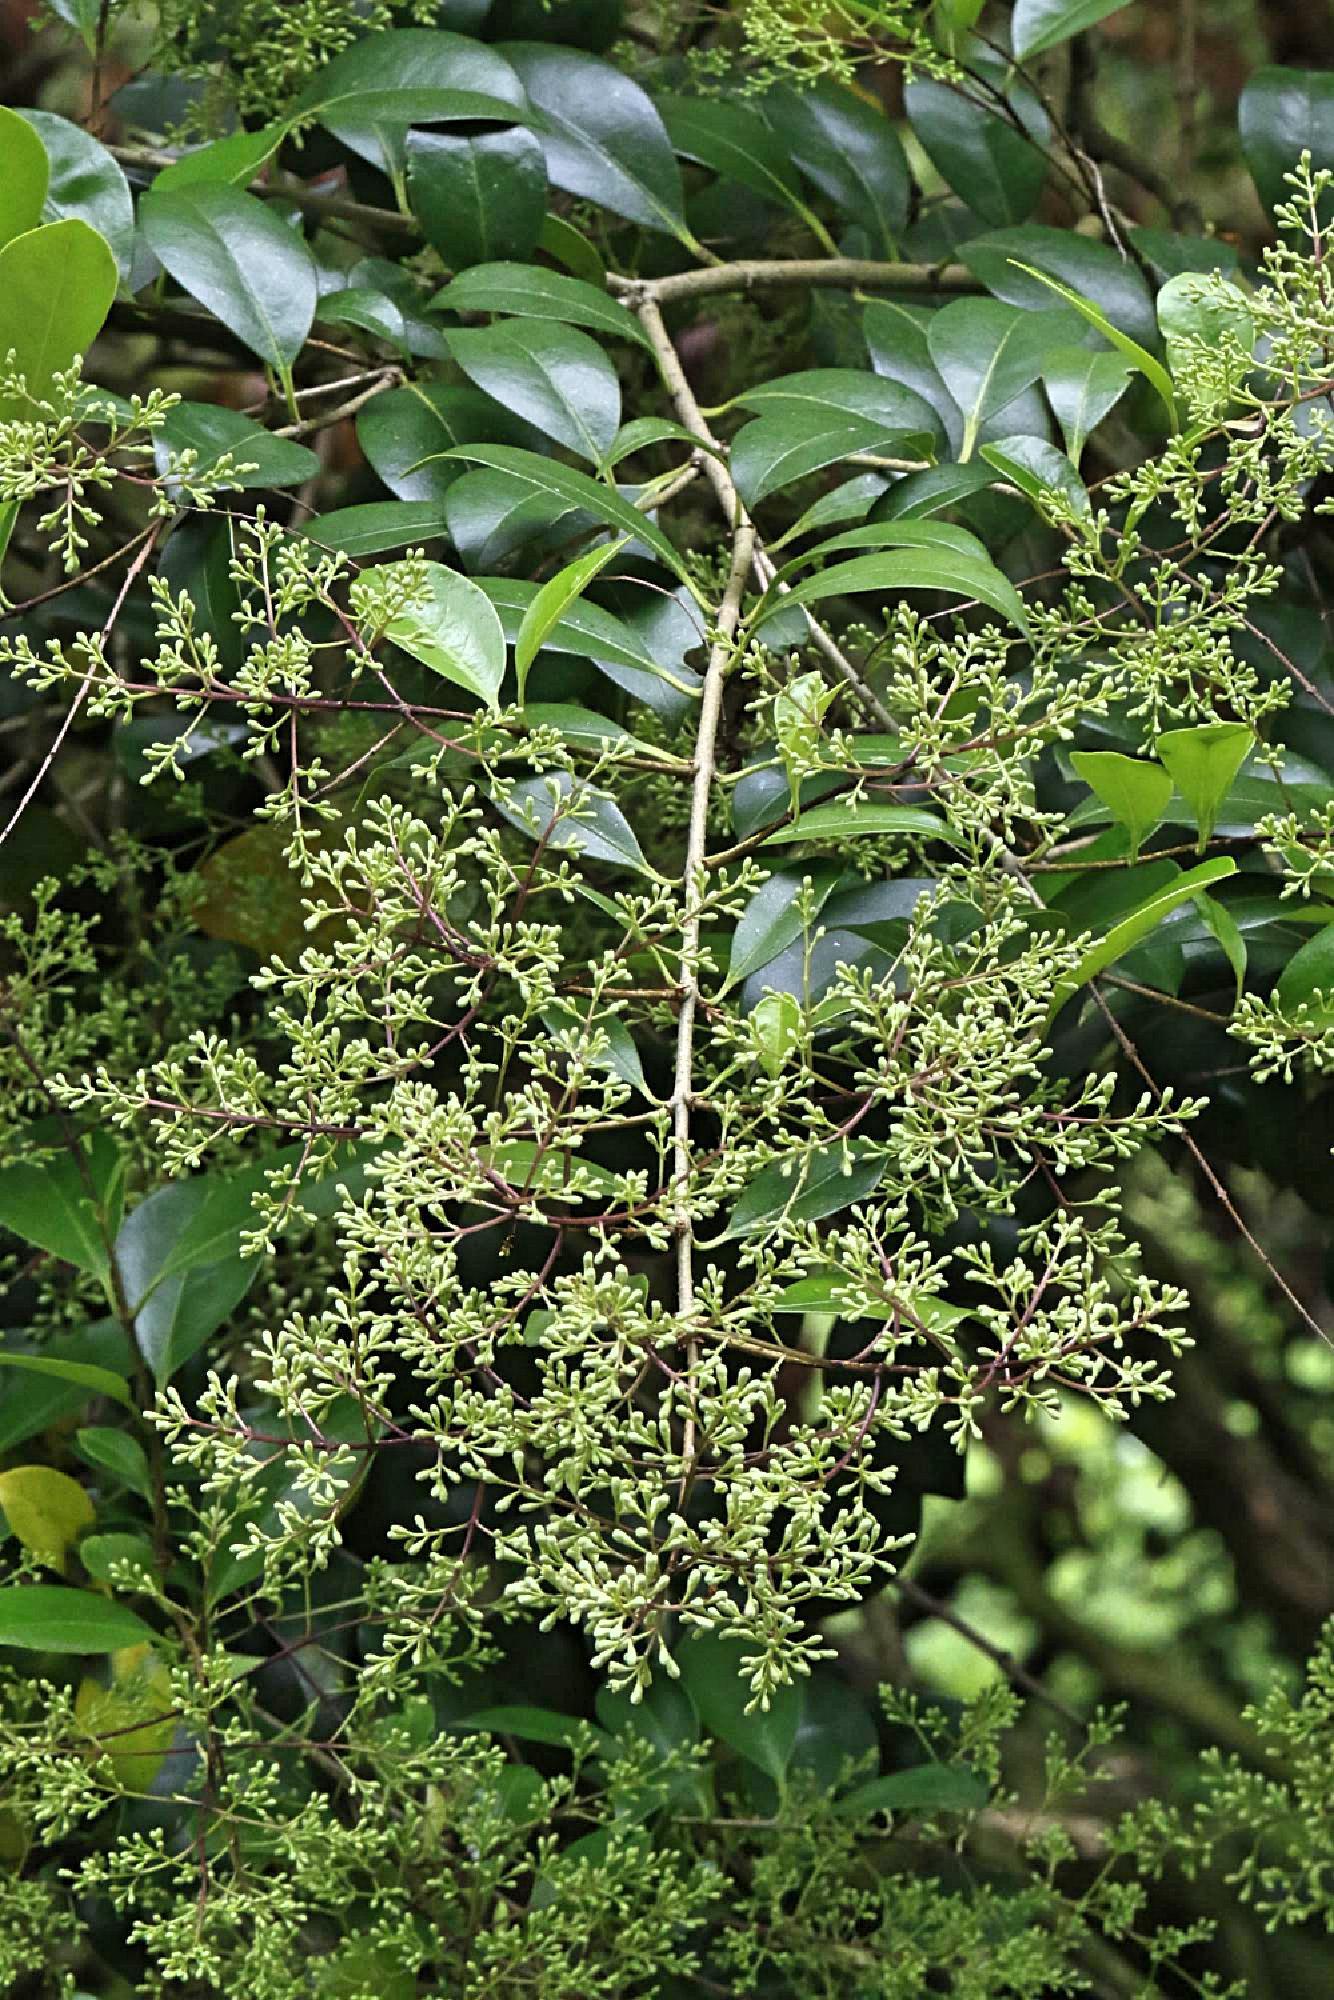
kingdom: Plantae
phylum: Tracheophyta
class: Magnoliopsida
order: Lamiales
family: Oleaceae
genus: Ligustrum
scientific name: Ligustrum lucidum
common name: Glossy privet
